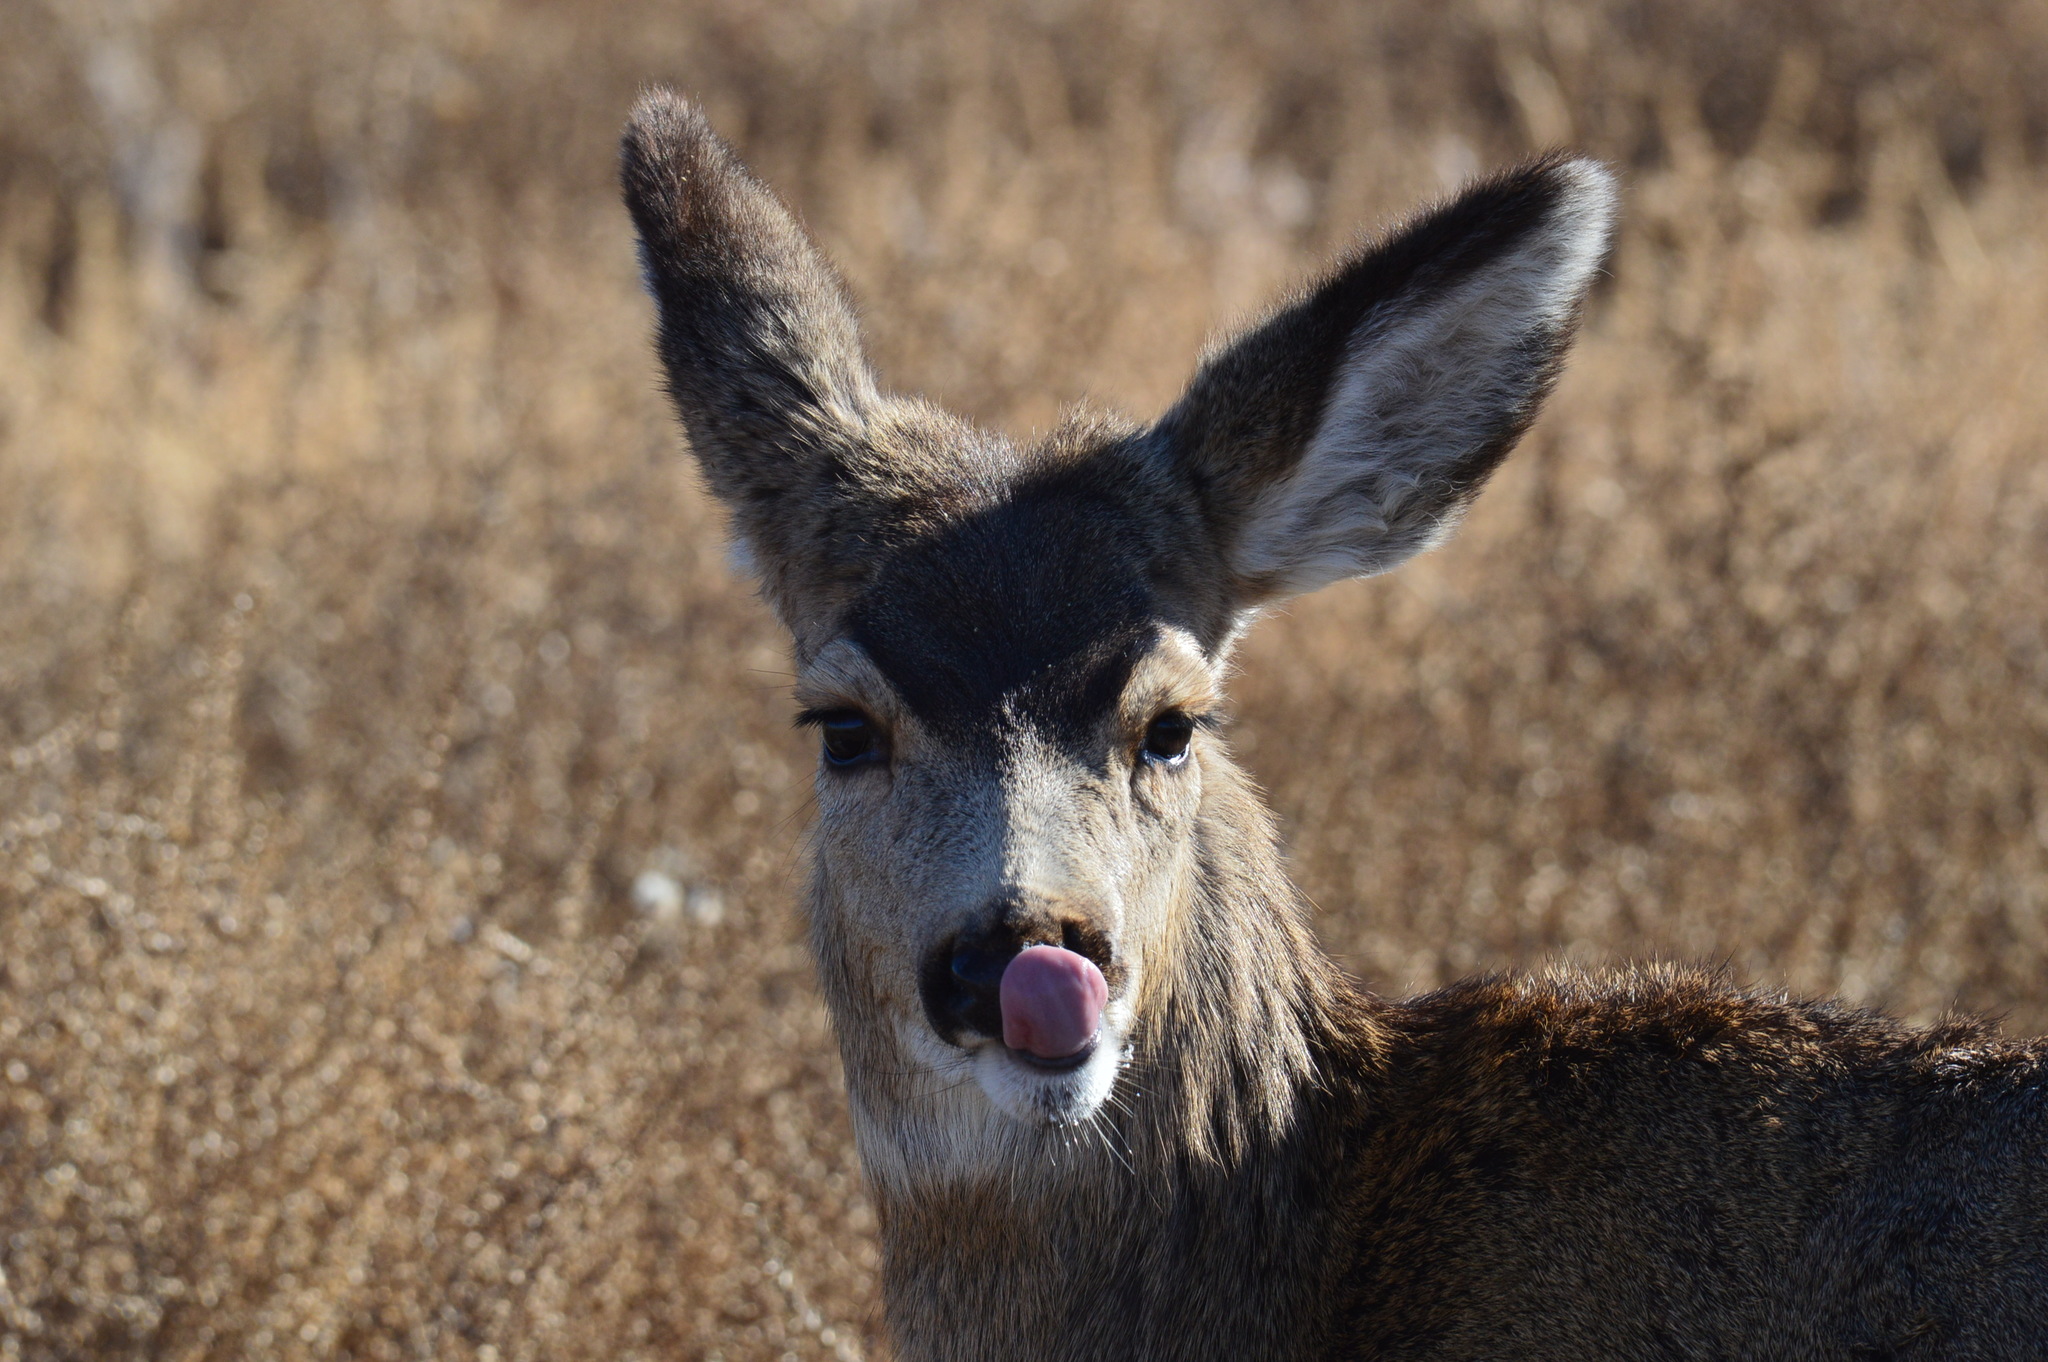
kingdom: Animalia
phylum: Chordata
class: Mammalia
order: Artiodactyla
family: Cervidae
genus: Odocoileus
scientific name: Odocoileus hemionus
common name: Mule deer
